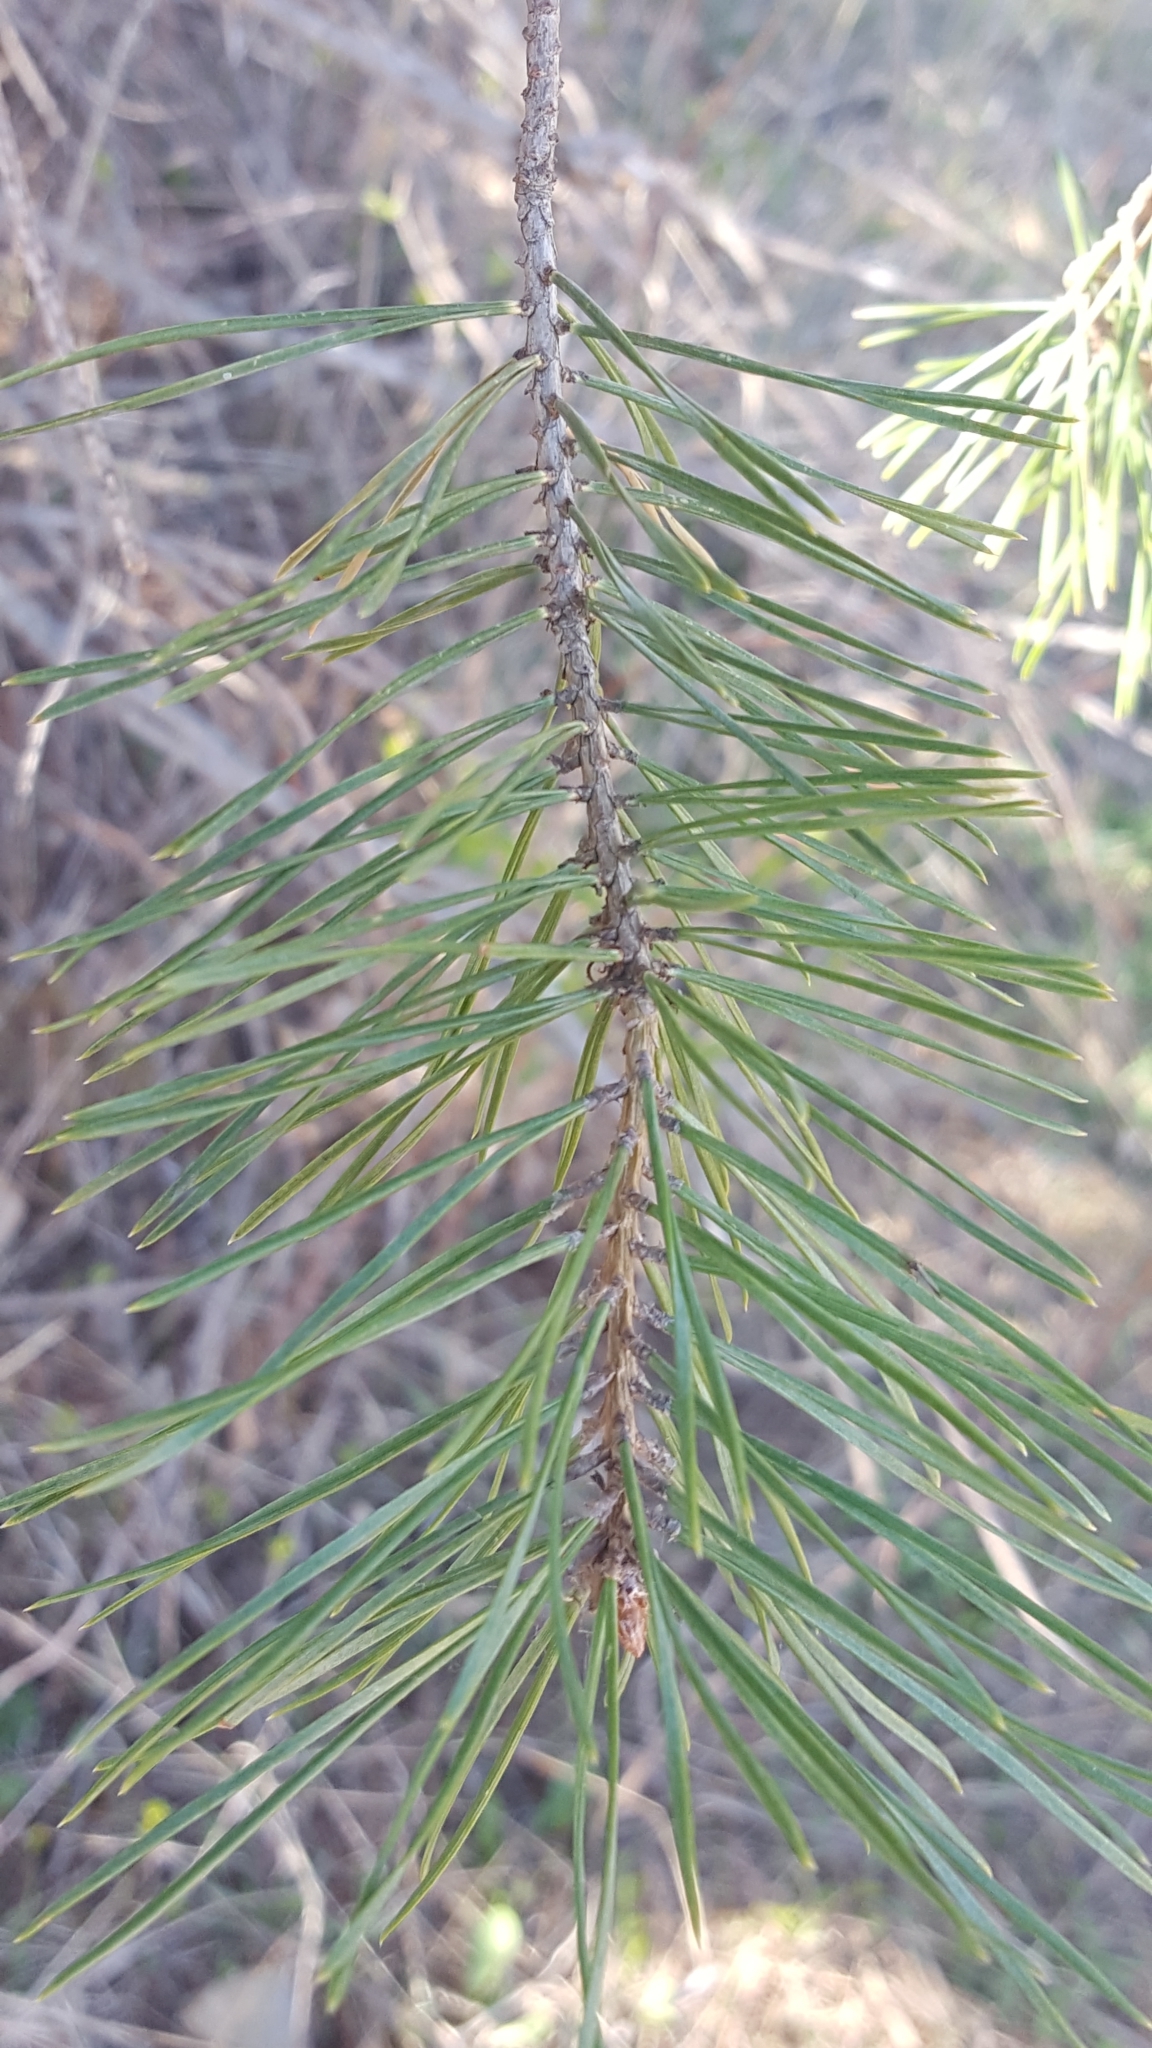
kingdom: Plantae
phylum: Tracheophyta
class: Pinopsida
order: Pinales
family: Pinaceae
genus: Pinus
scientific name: Pinus sylvestris
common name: Scots pine
